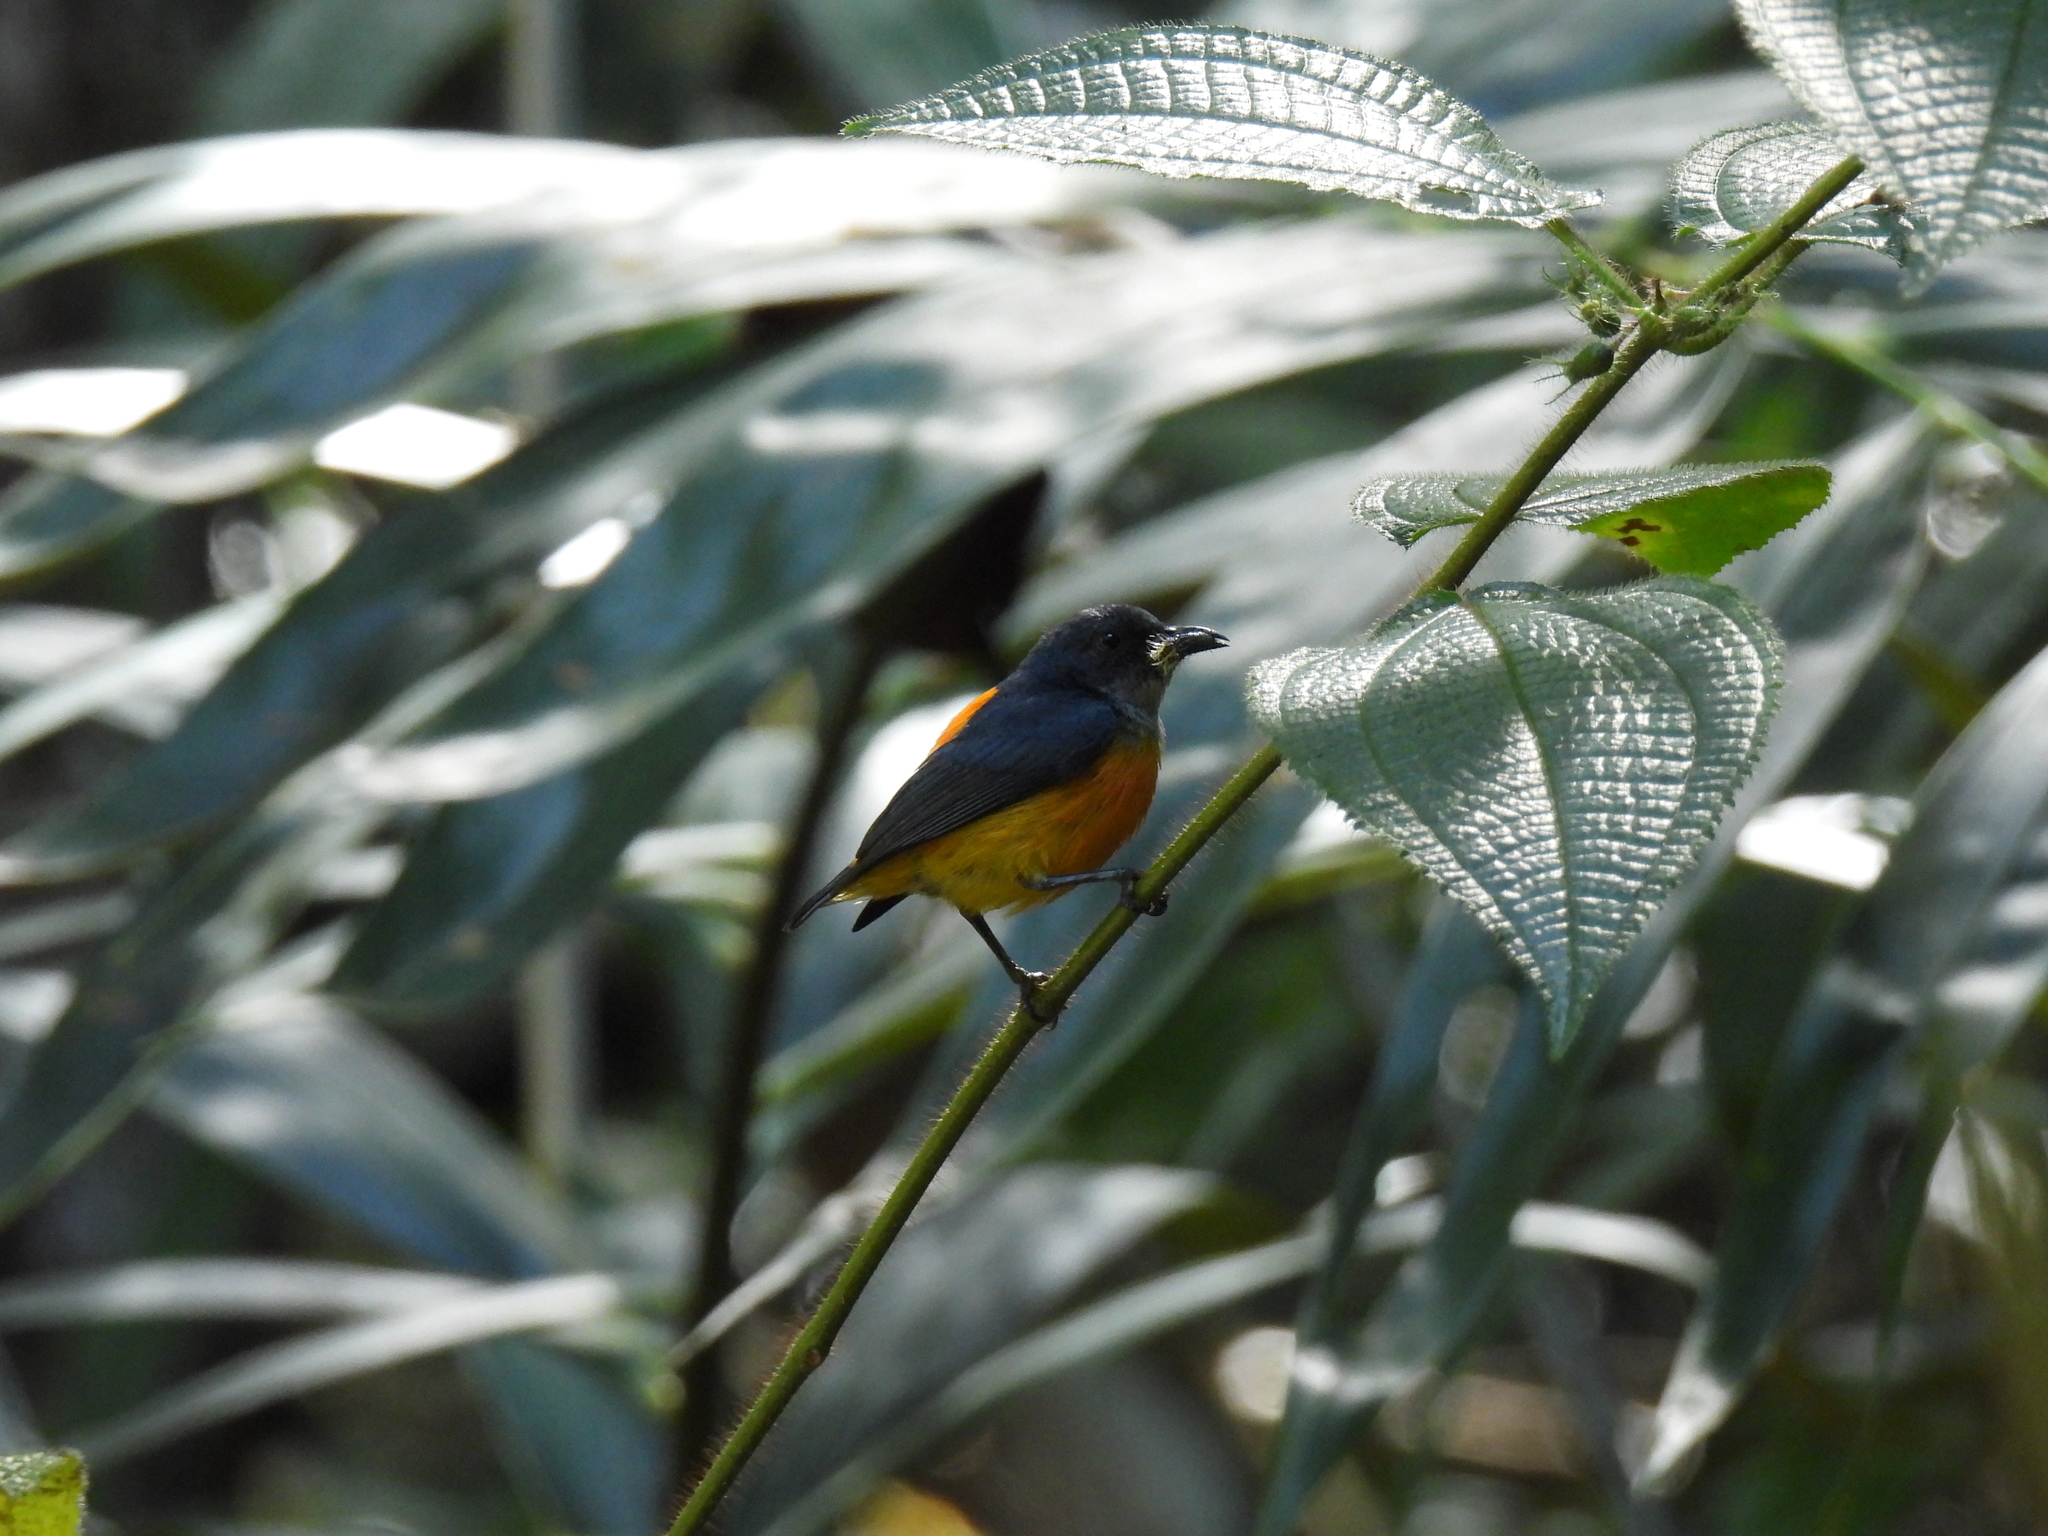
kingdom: Animalia
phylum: Chordata
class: Aves
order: Passeriformes
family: Dicaeidae
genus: Dicaeum
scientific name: Dicaeum trigonostigma
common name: Orange-bellied flowerpecker
